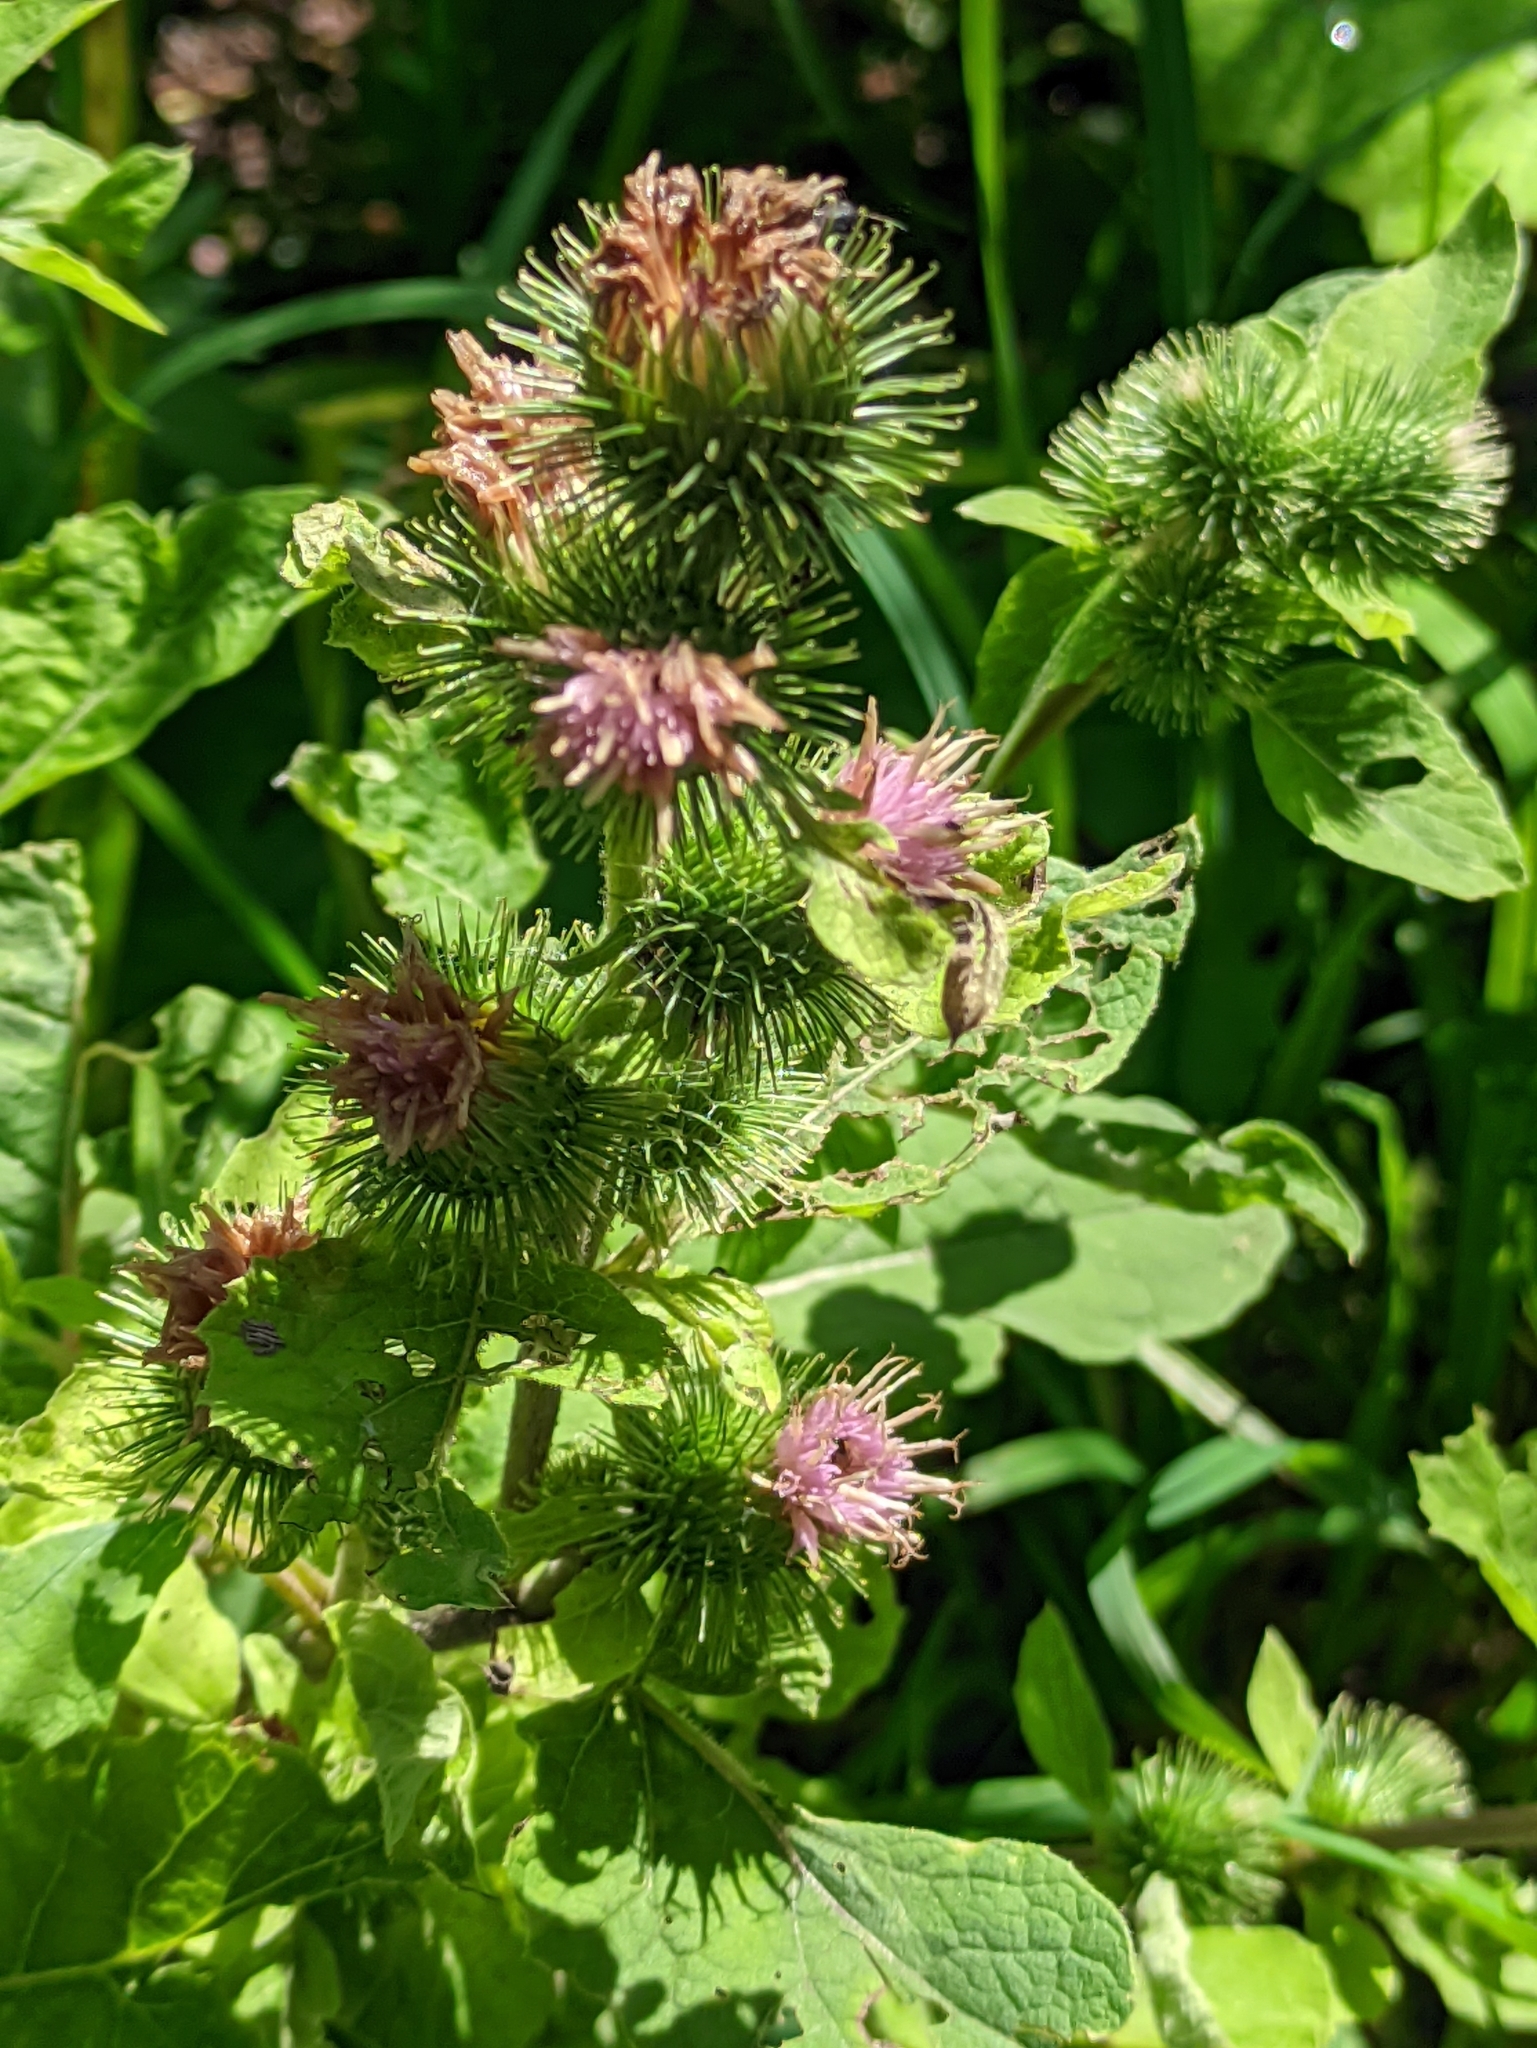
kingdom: Plantae
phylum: Tracheophyta
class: Magnoliopsida
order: Asterales
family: Asteraceae
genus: Arctium
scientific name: Arctium minus
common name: Lesser burdock
